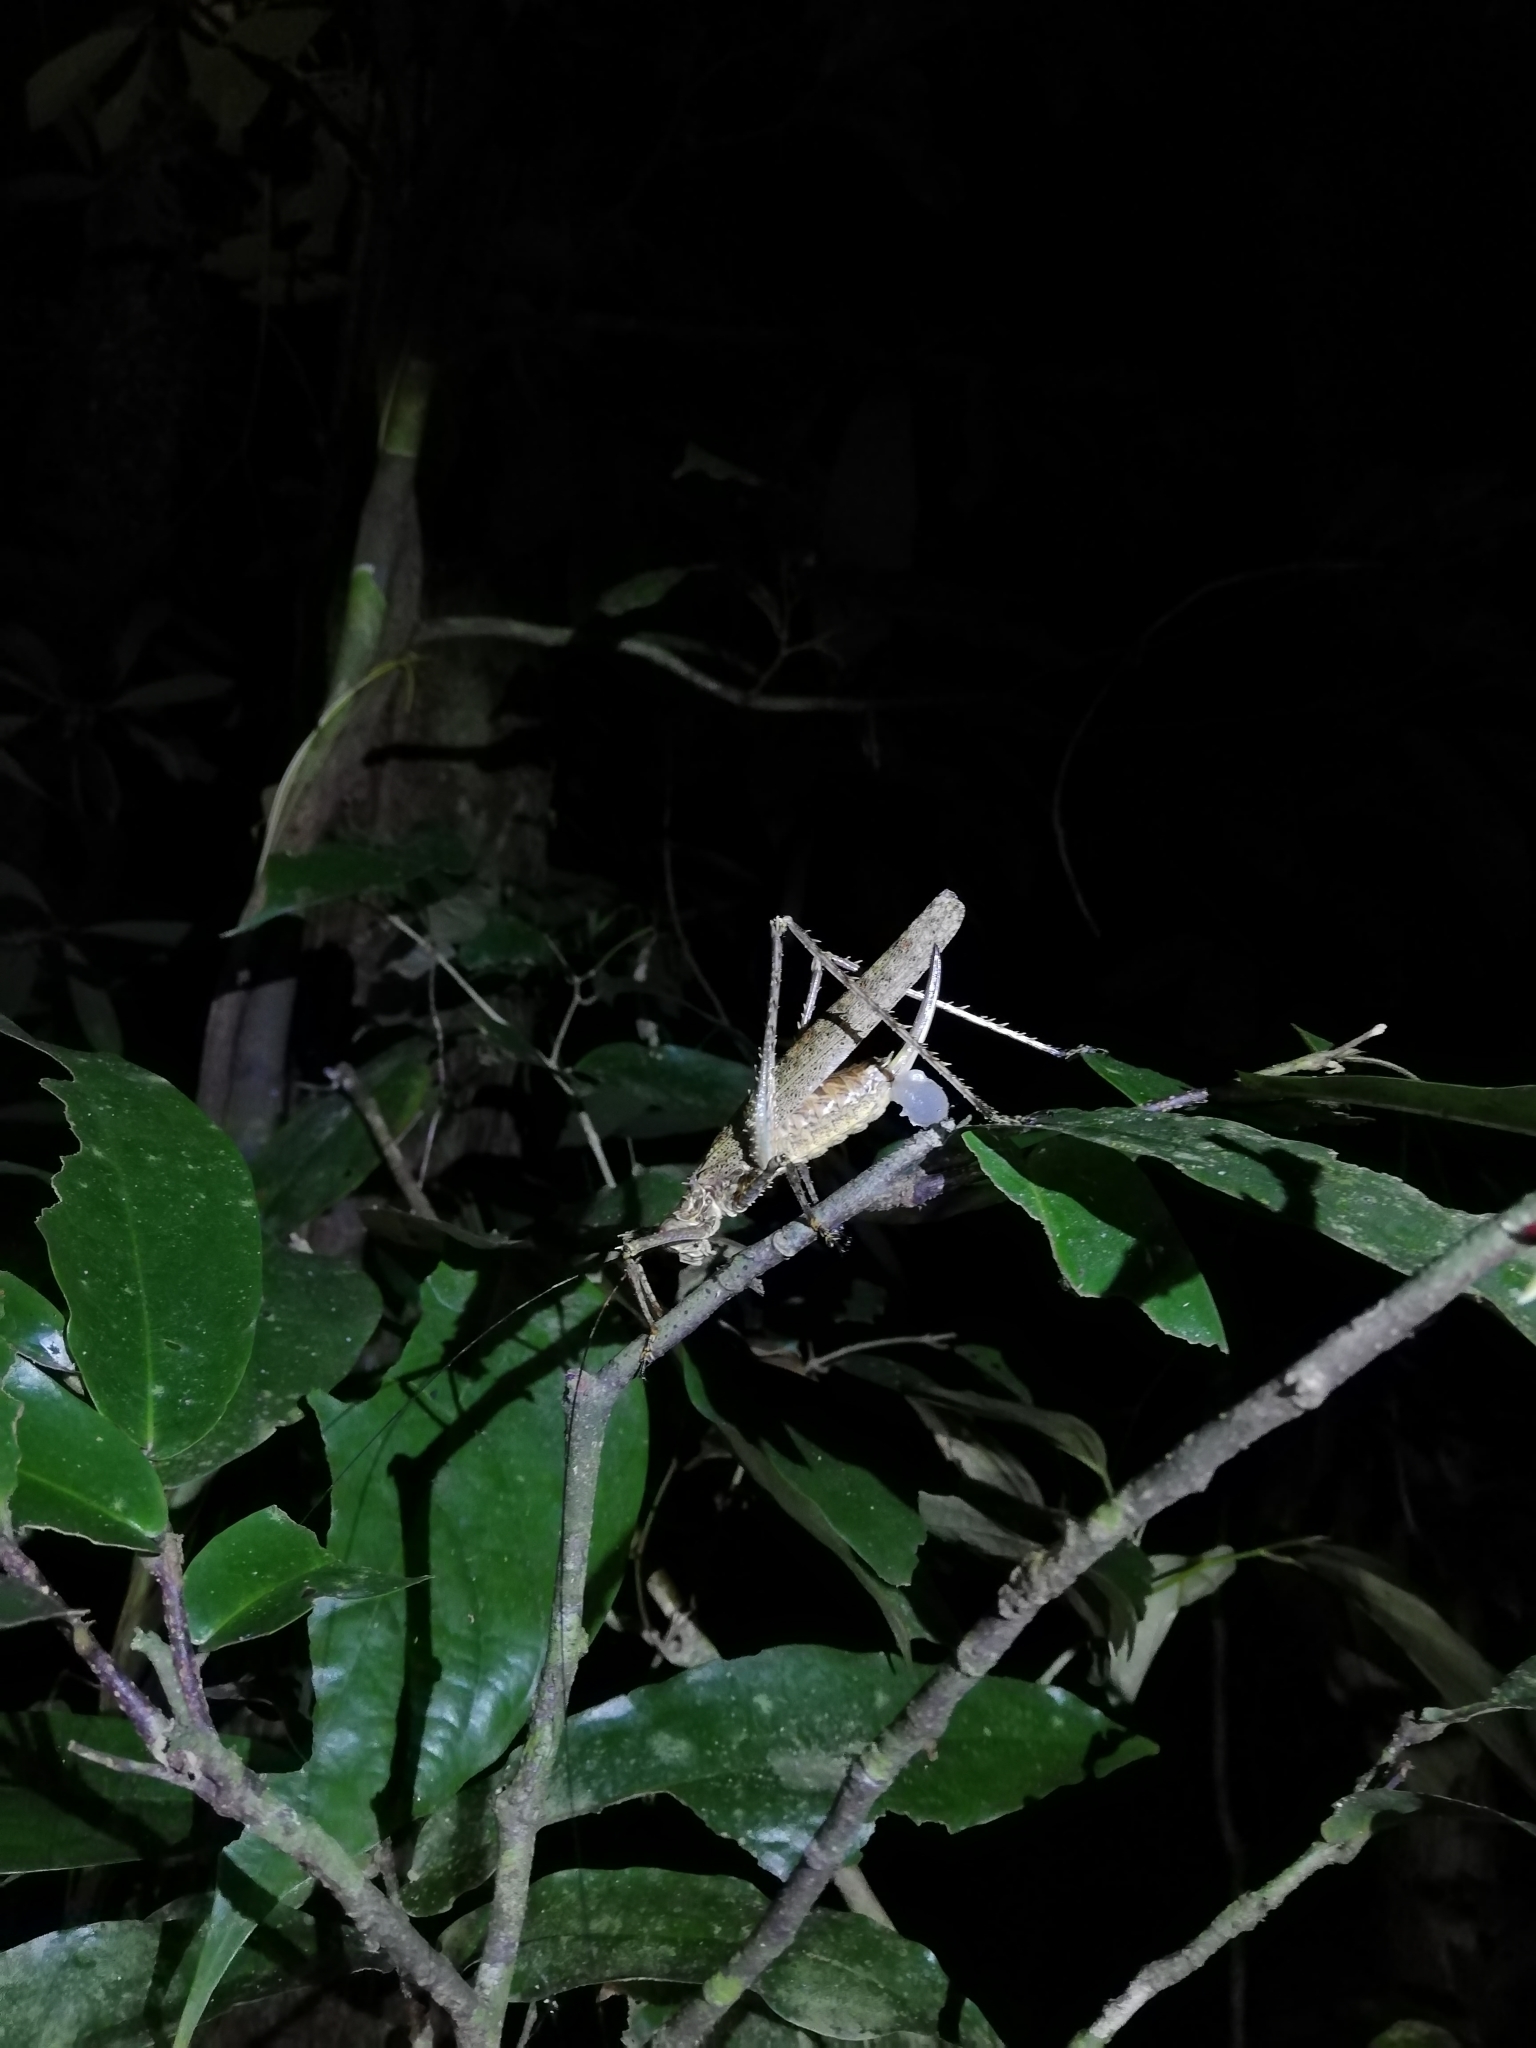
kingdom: Animalia
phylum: Arthropoda
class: Insecta
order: Orthoptera
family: Tettigoniidae
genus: Phricta
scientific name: Phricta spinosa
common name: Giant spiny forest katydid
